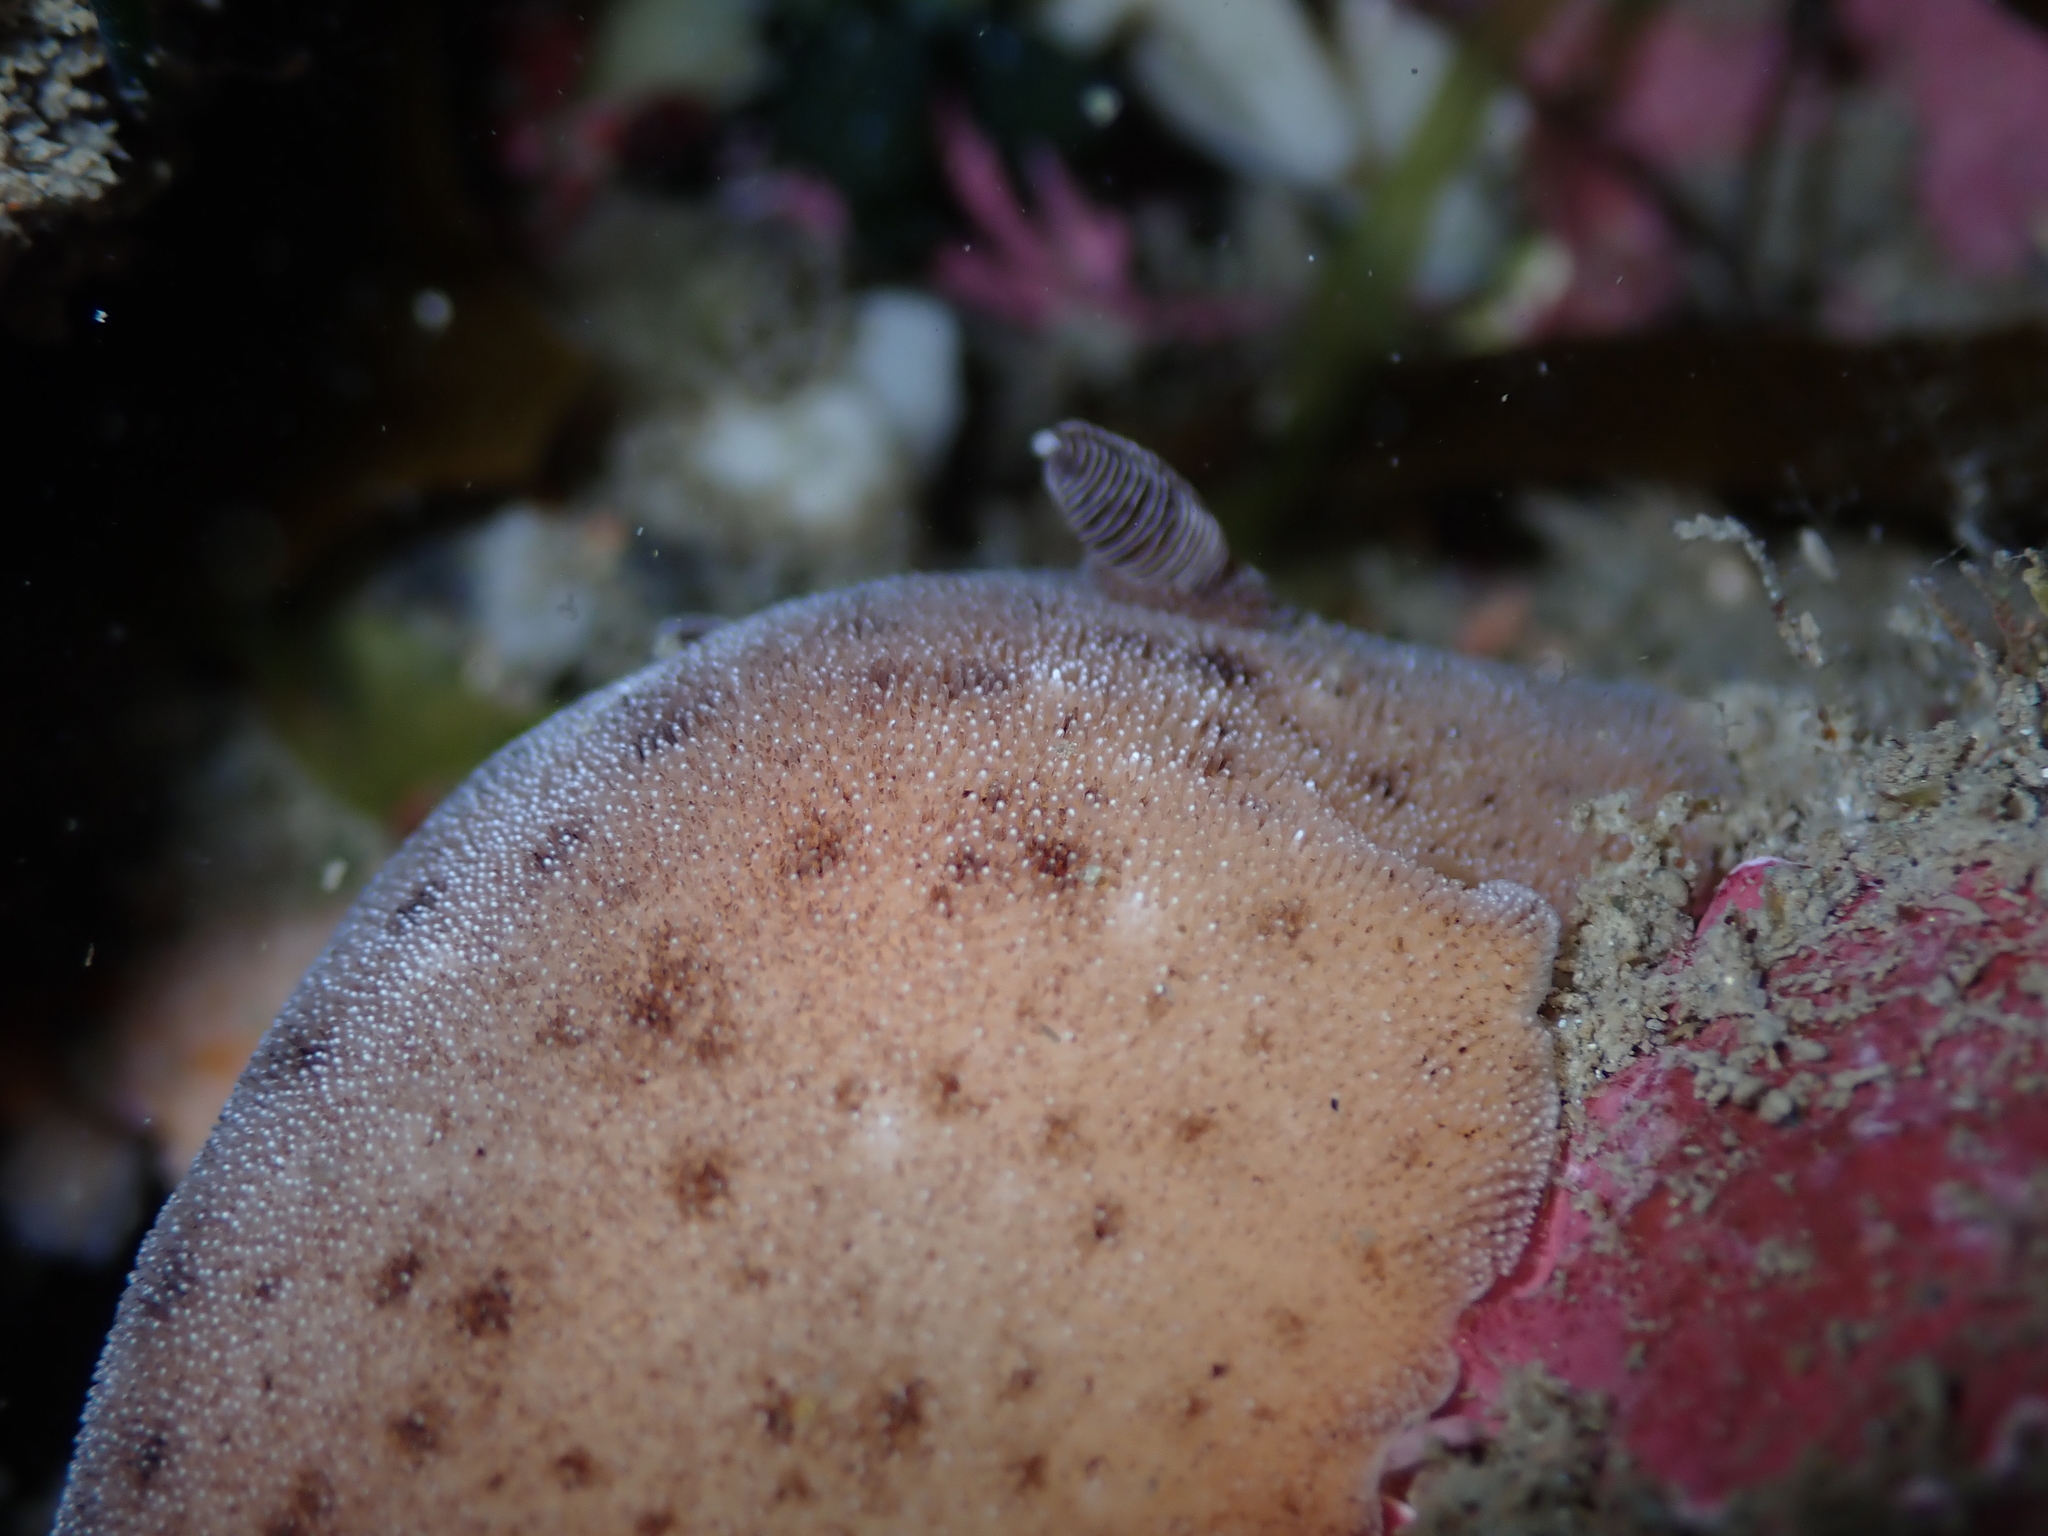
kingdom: Animalia
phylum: Mollusca
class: Gastropoda
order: Nudibranchia
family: Discodorididae
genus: Alloiodoris
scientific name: Alloiodoris lanuginata
